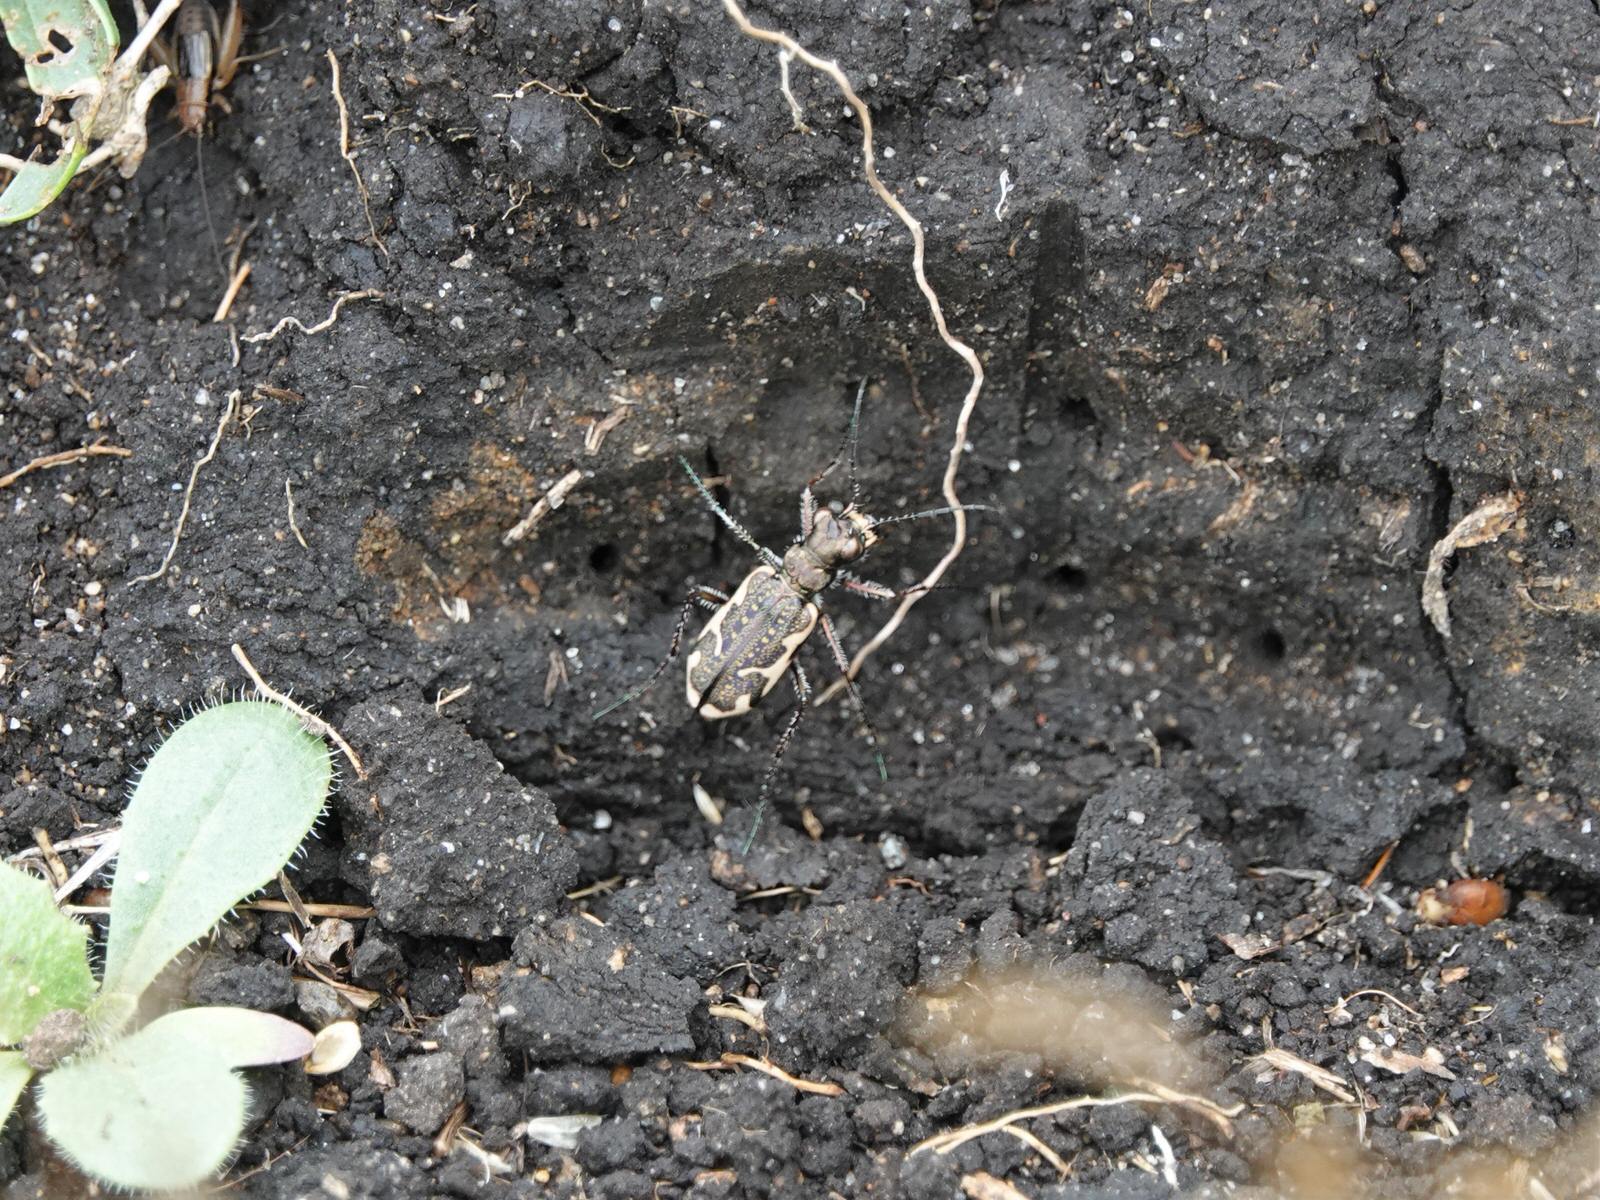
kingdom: Animalia
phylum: Arthropoda
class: Insecta
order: Coleoptera
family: Carabidae
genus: Neocicindela
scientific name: Neocicindela tuberculata
